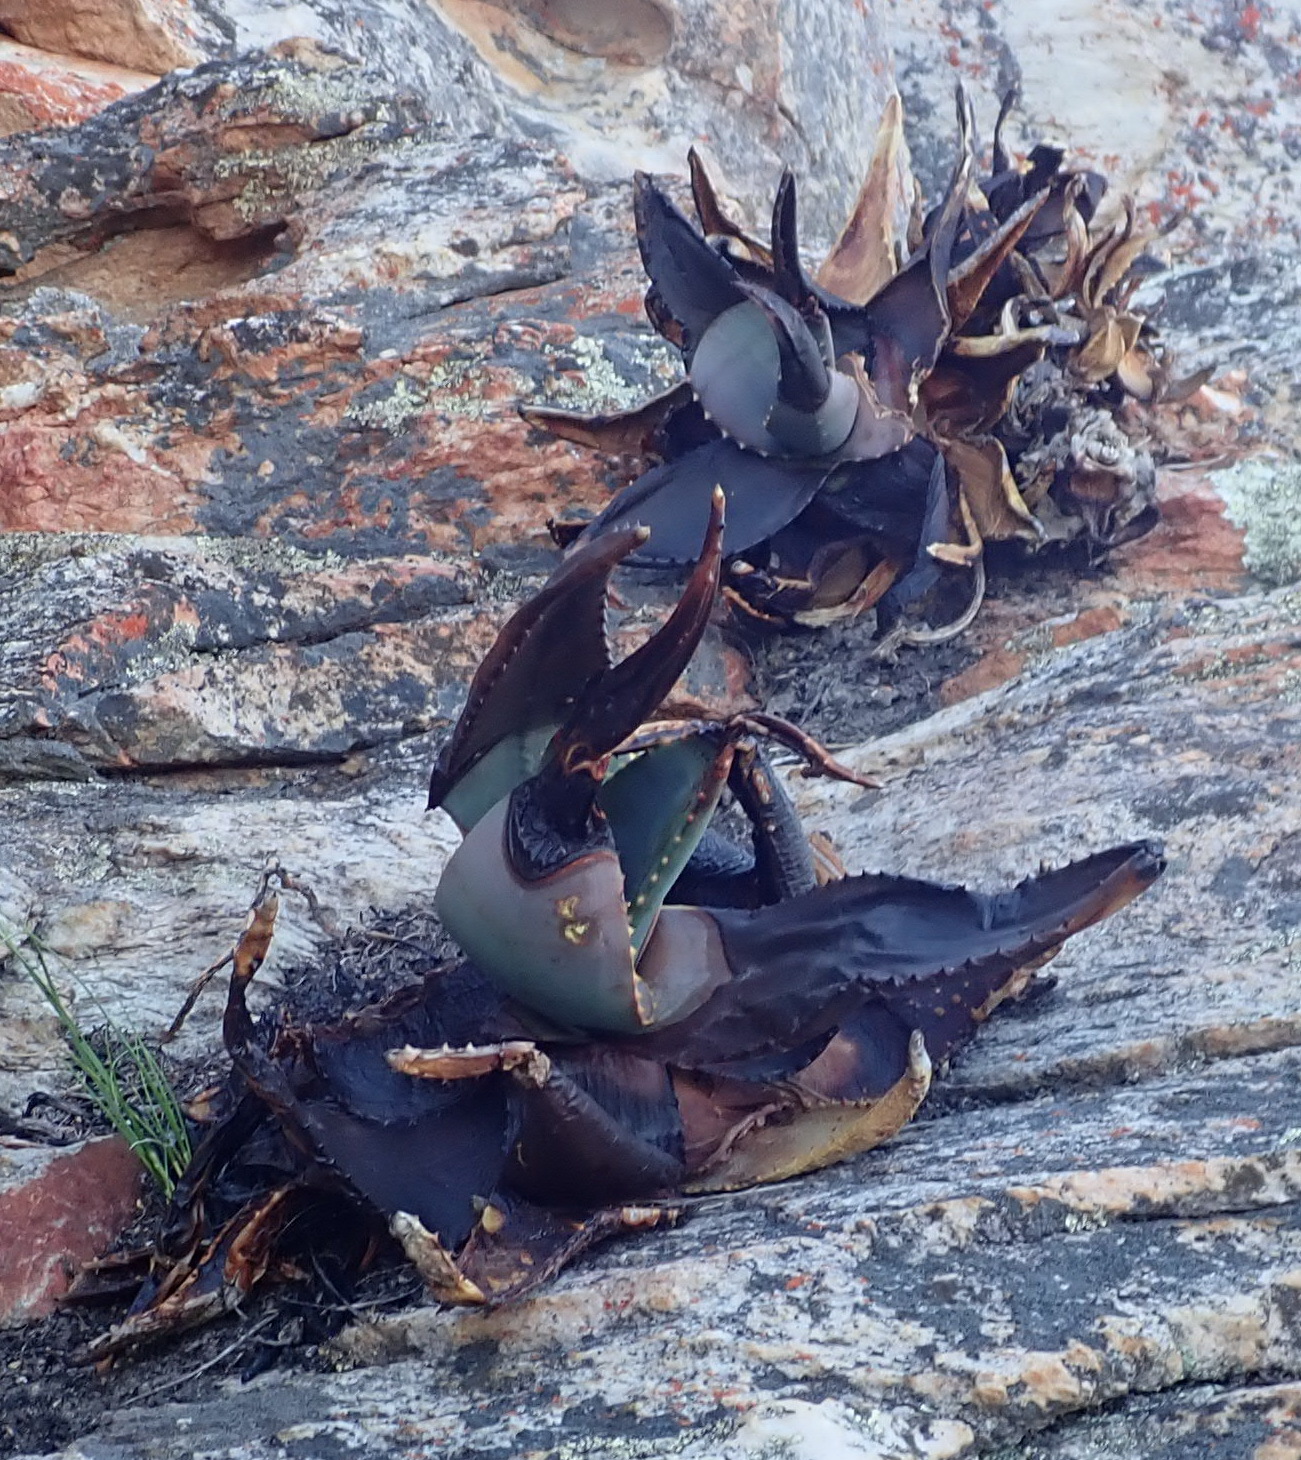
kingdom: Plantae
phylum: Tracheophyta
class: Liliopsida
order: Asparagales
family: Asphodelaceae
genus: Aloe
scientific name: Aloe comptonii
